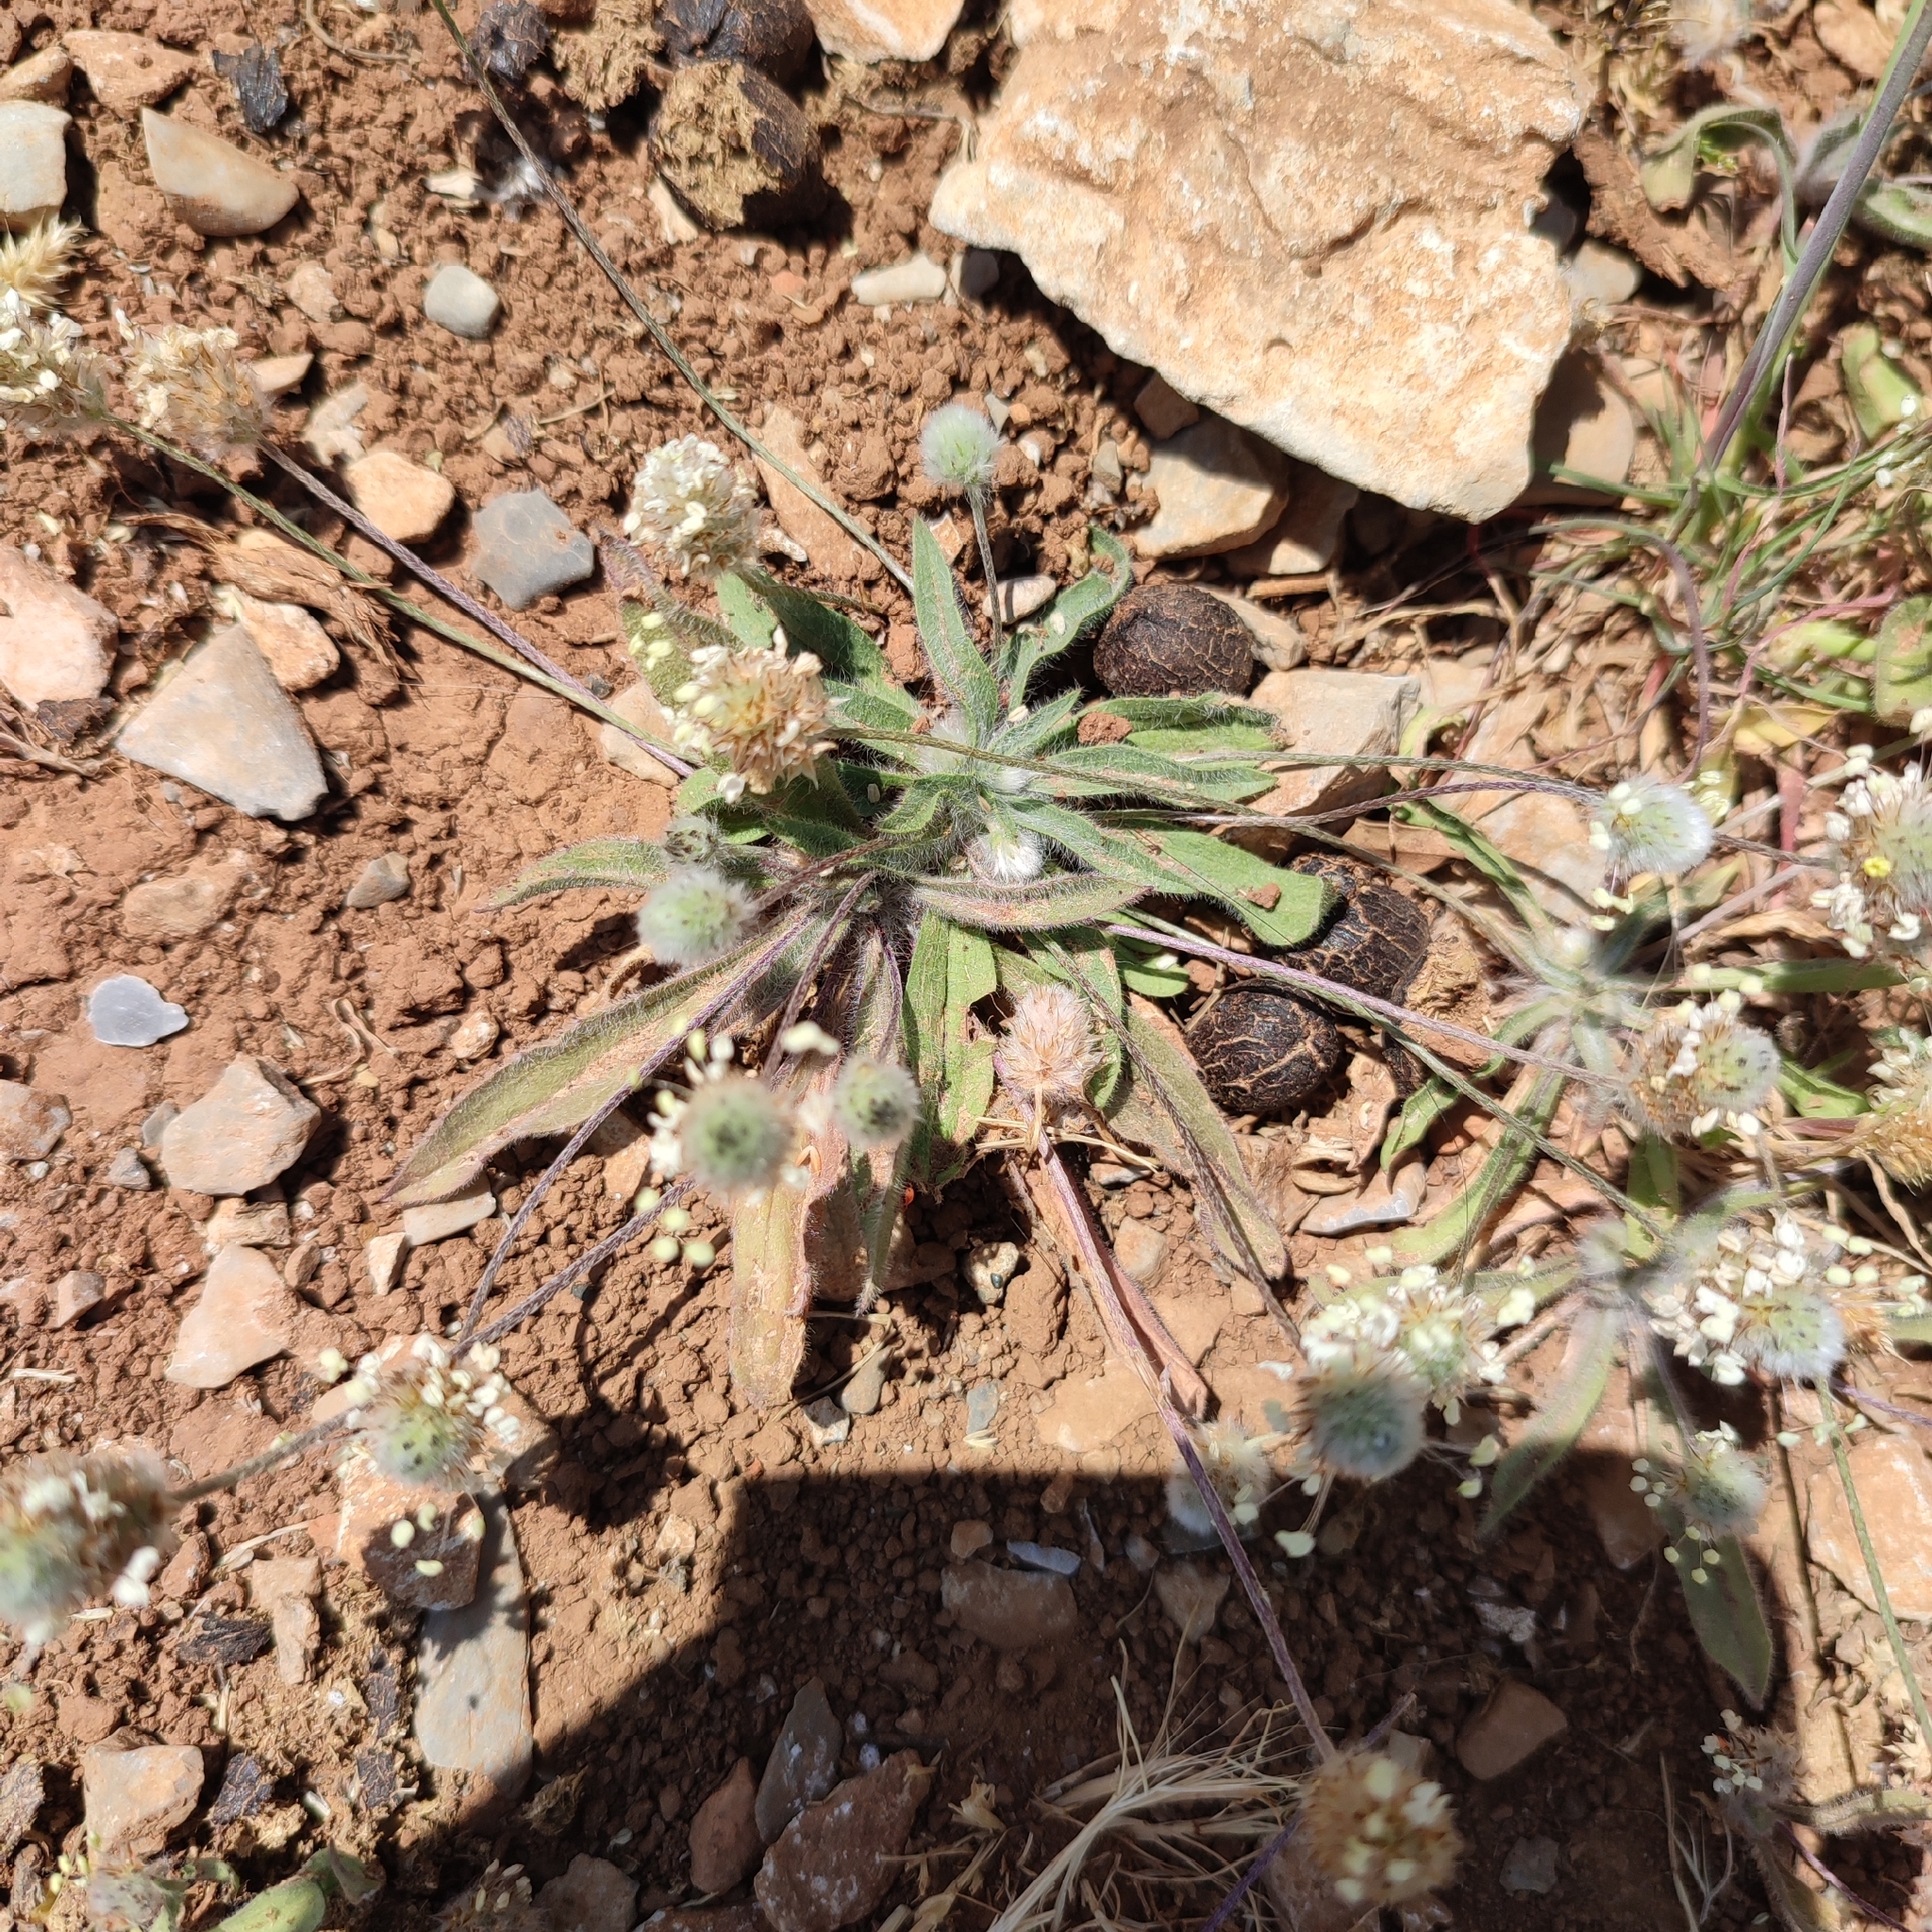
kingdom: Plantae
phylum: Tracheophyta
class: Magnoliopsida
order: Lamiales
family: Plantaginaceae
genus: Plantago
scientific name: Plantago lagopus
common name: Hare-foot plantain
